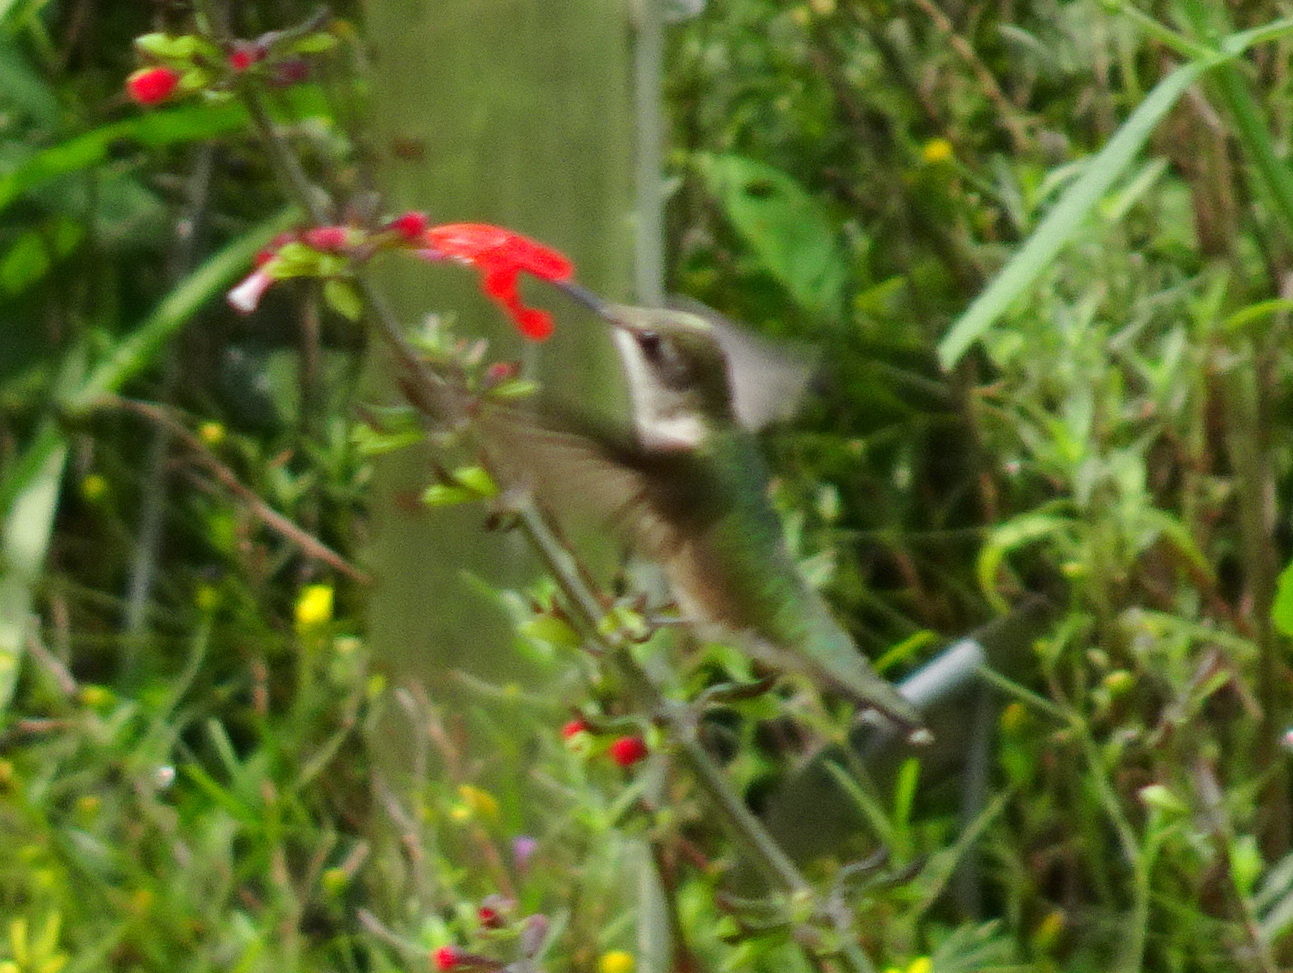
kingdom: Animalia
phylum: Chordata
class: Aves
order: Apodiformes
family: Trochilidae
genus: Archilochus
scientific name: Archilochus colubris
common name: Ruby-throated hummingbird
